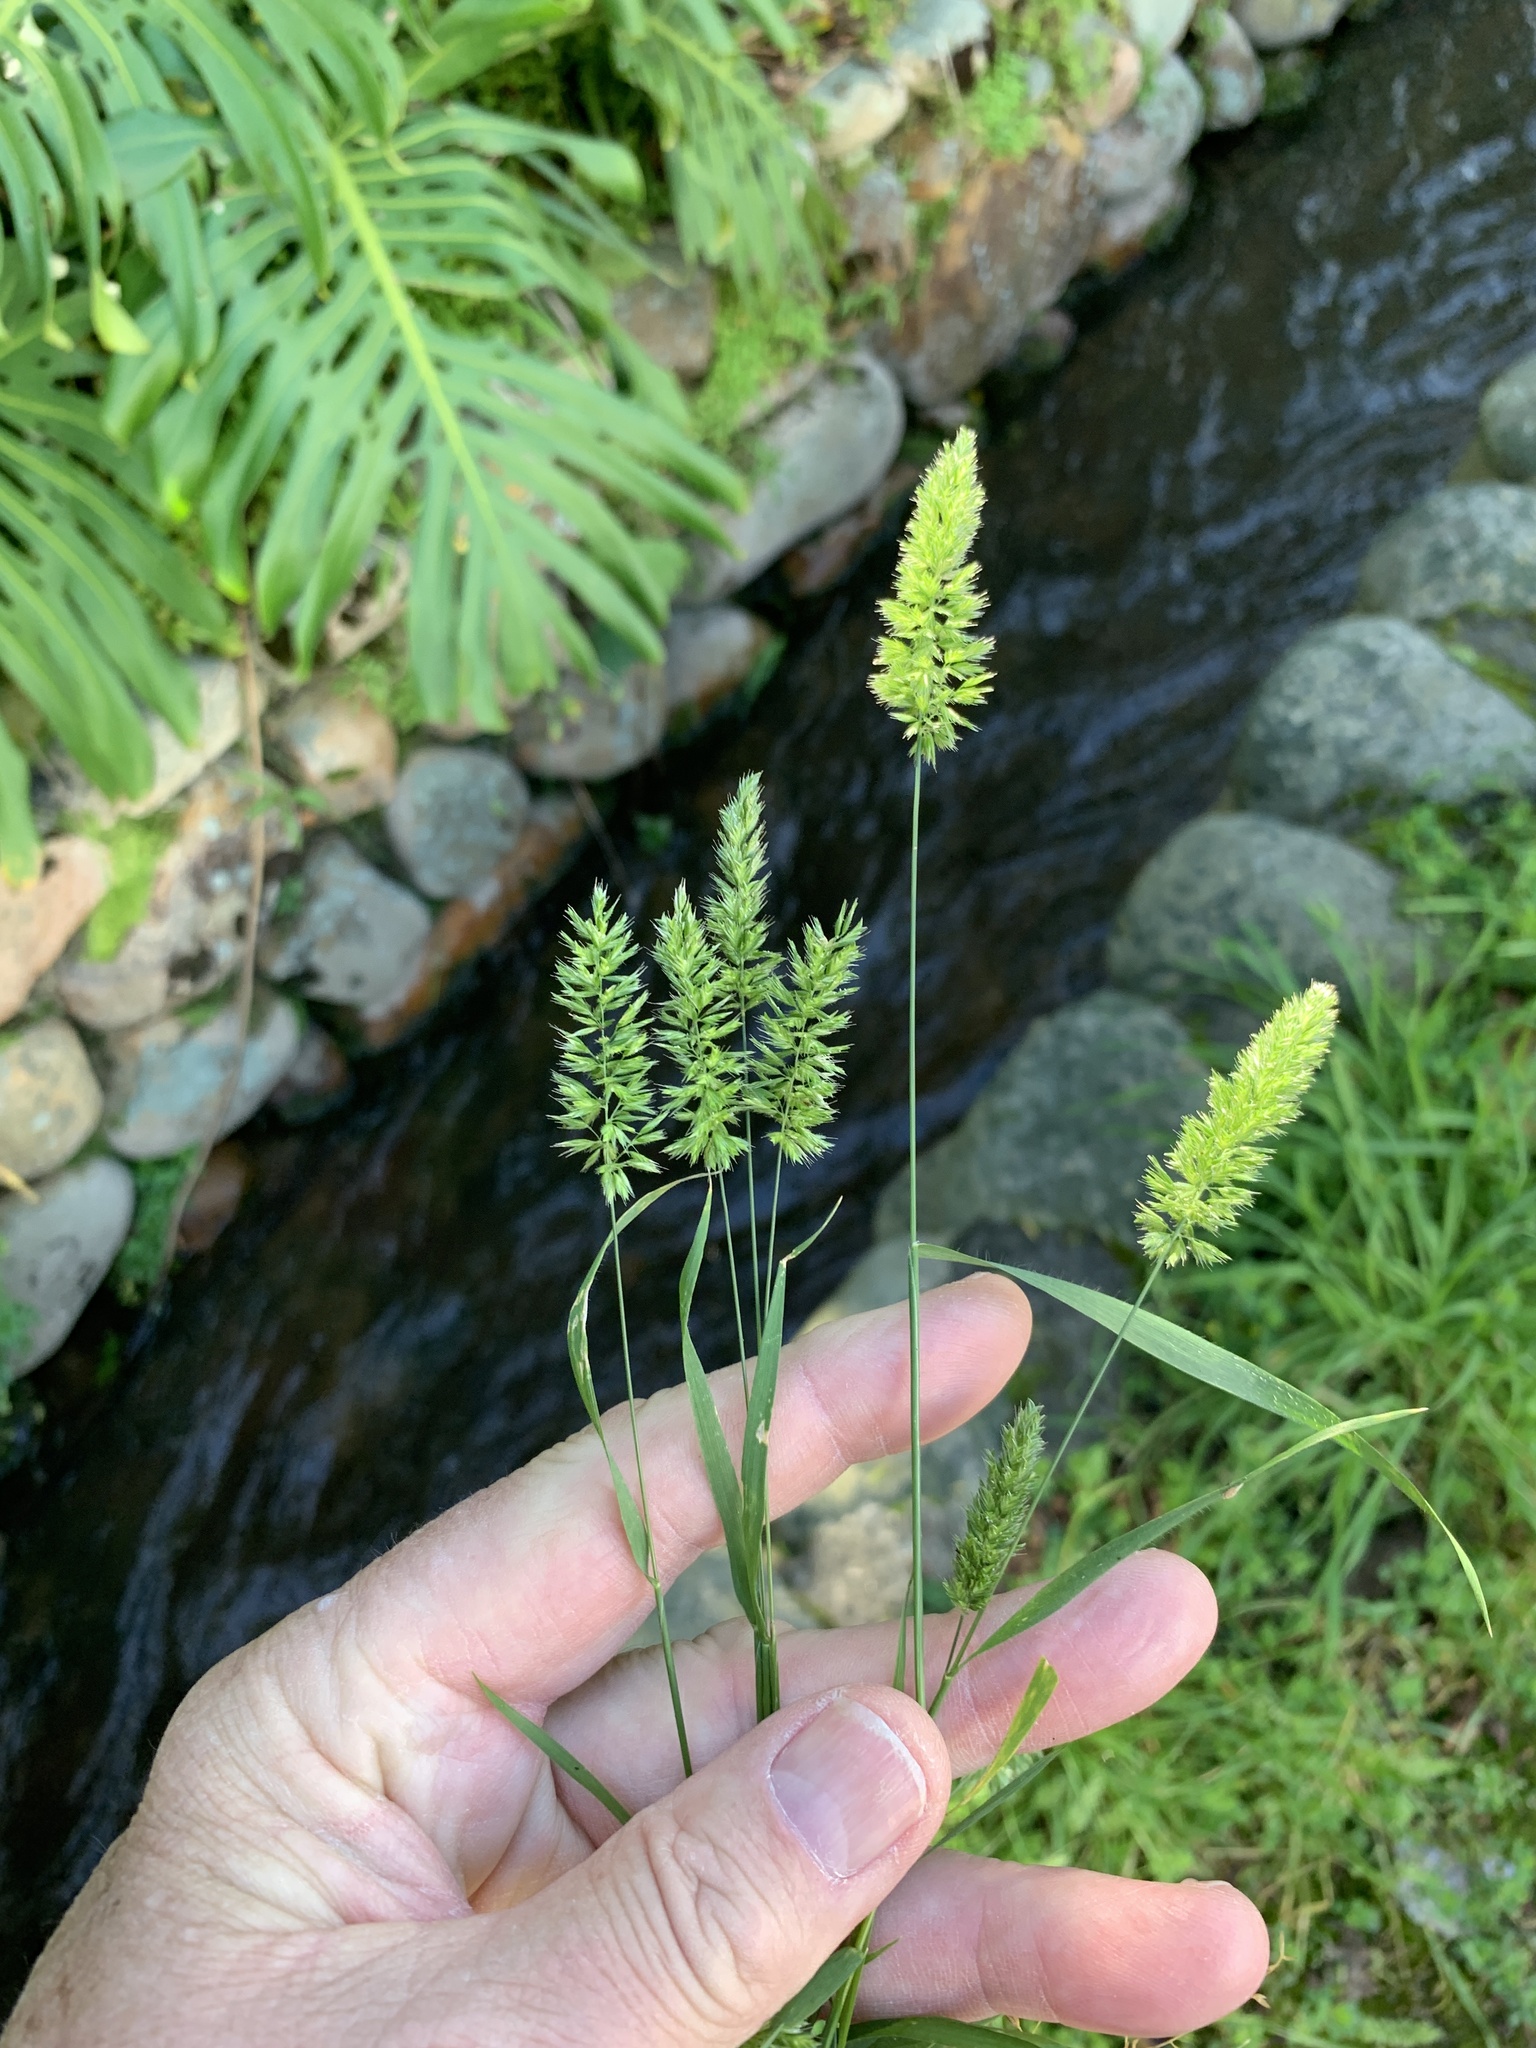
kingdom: Plantae
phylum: Tracheophyta
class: Liliopsida
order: Poales
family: Poaceae
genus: Rostraria
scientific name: Rostraria cristata
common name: Mediterranean hair-grass
